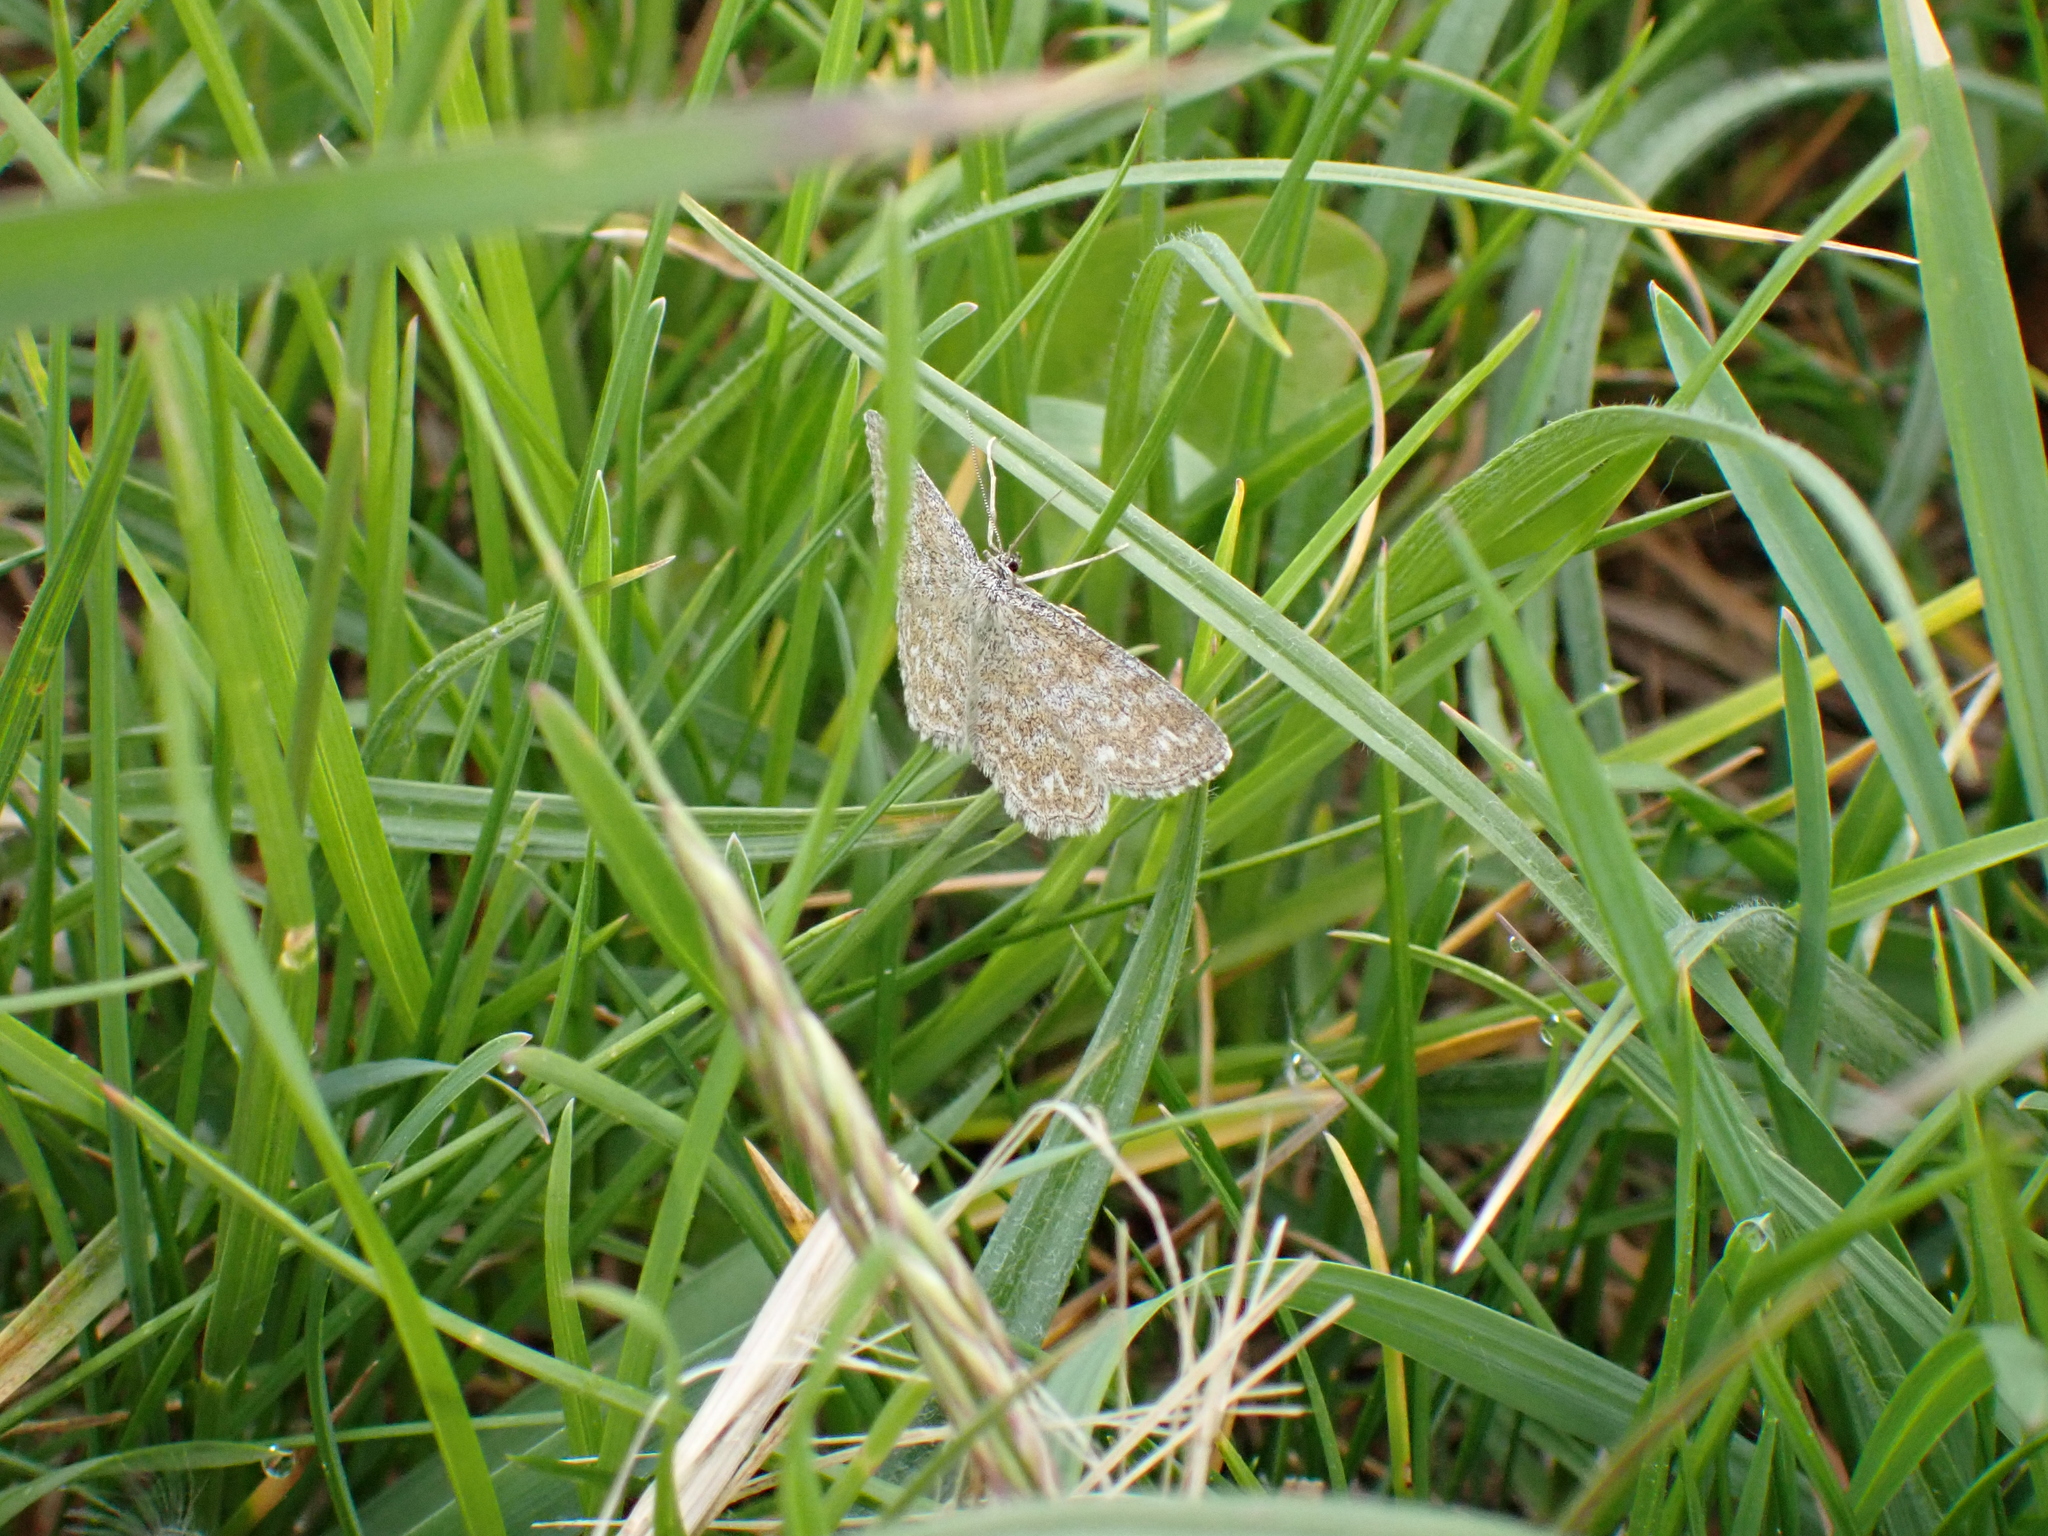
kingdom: Animalia
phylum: Arthropoda
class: Insecta
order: Lepidoptera
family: Geometridae
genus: Scopula
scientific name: Scopula immorata
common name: Lewes wave
